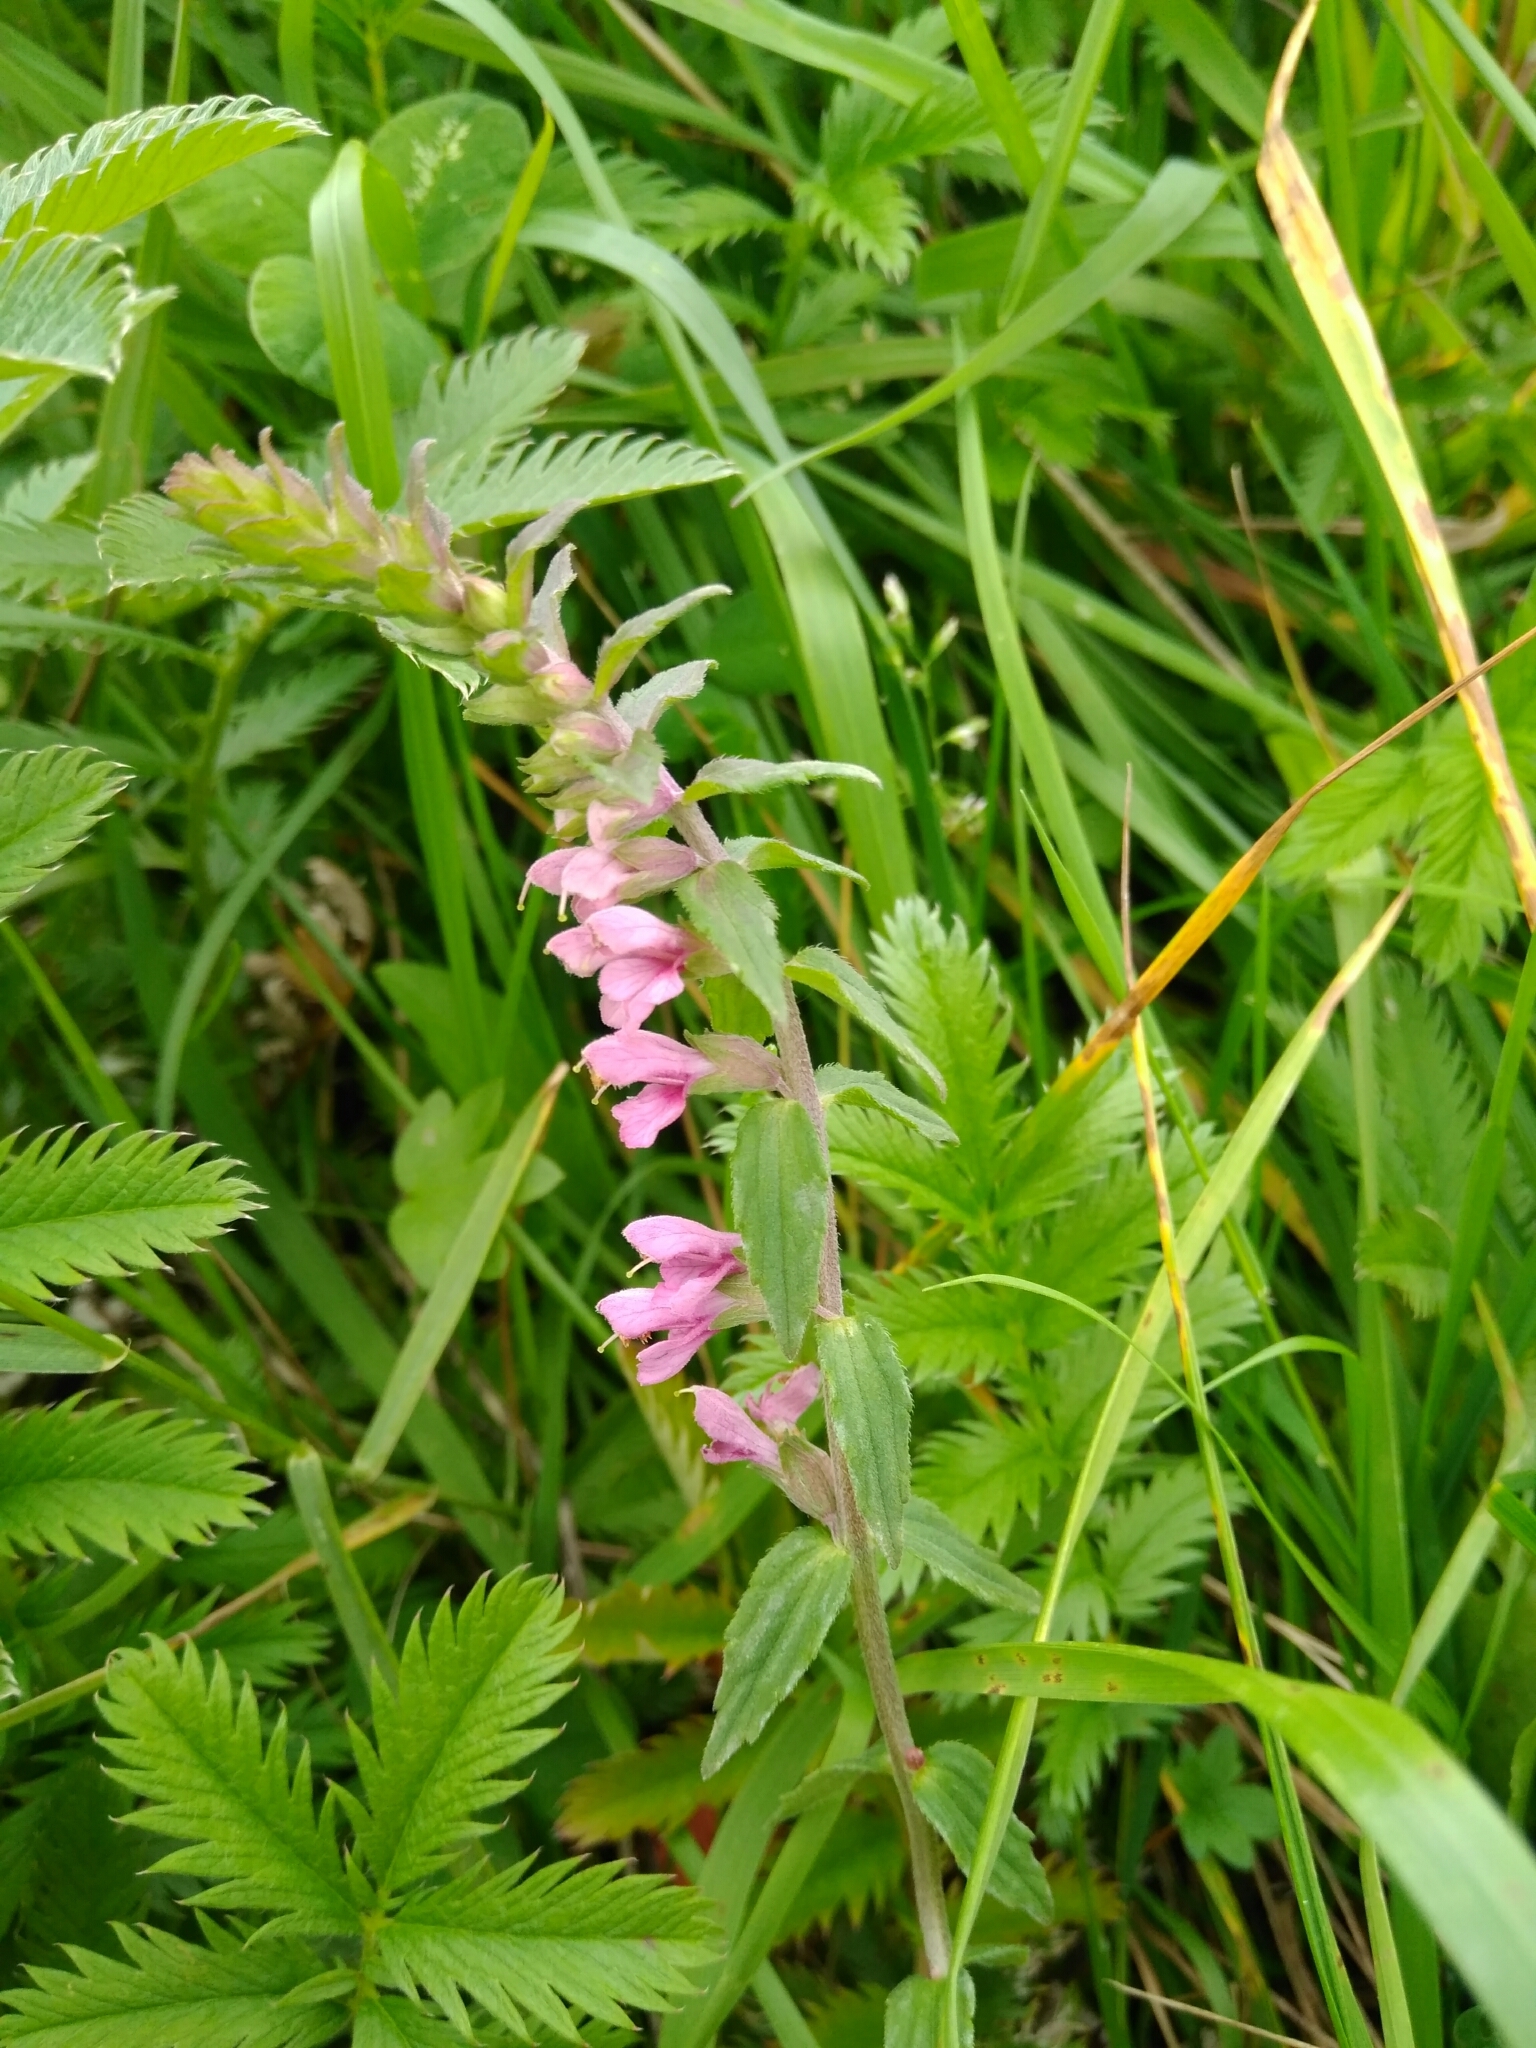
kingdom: Plantae
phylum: Tracheophyta
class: Magnoliopsida
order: Lamiales
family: Orobanchaceae
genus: Odontites
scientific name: Odontites vulgaris
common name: Broomrape
